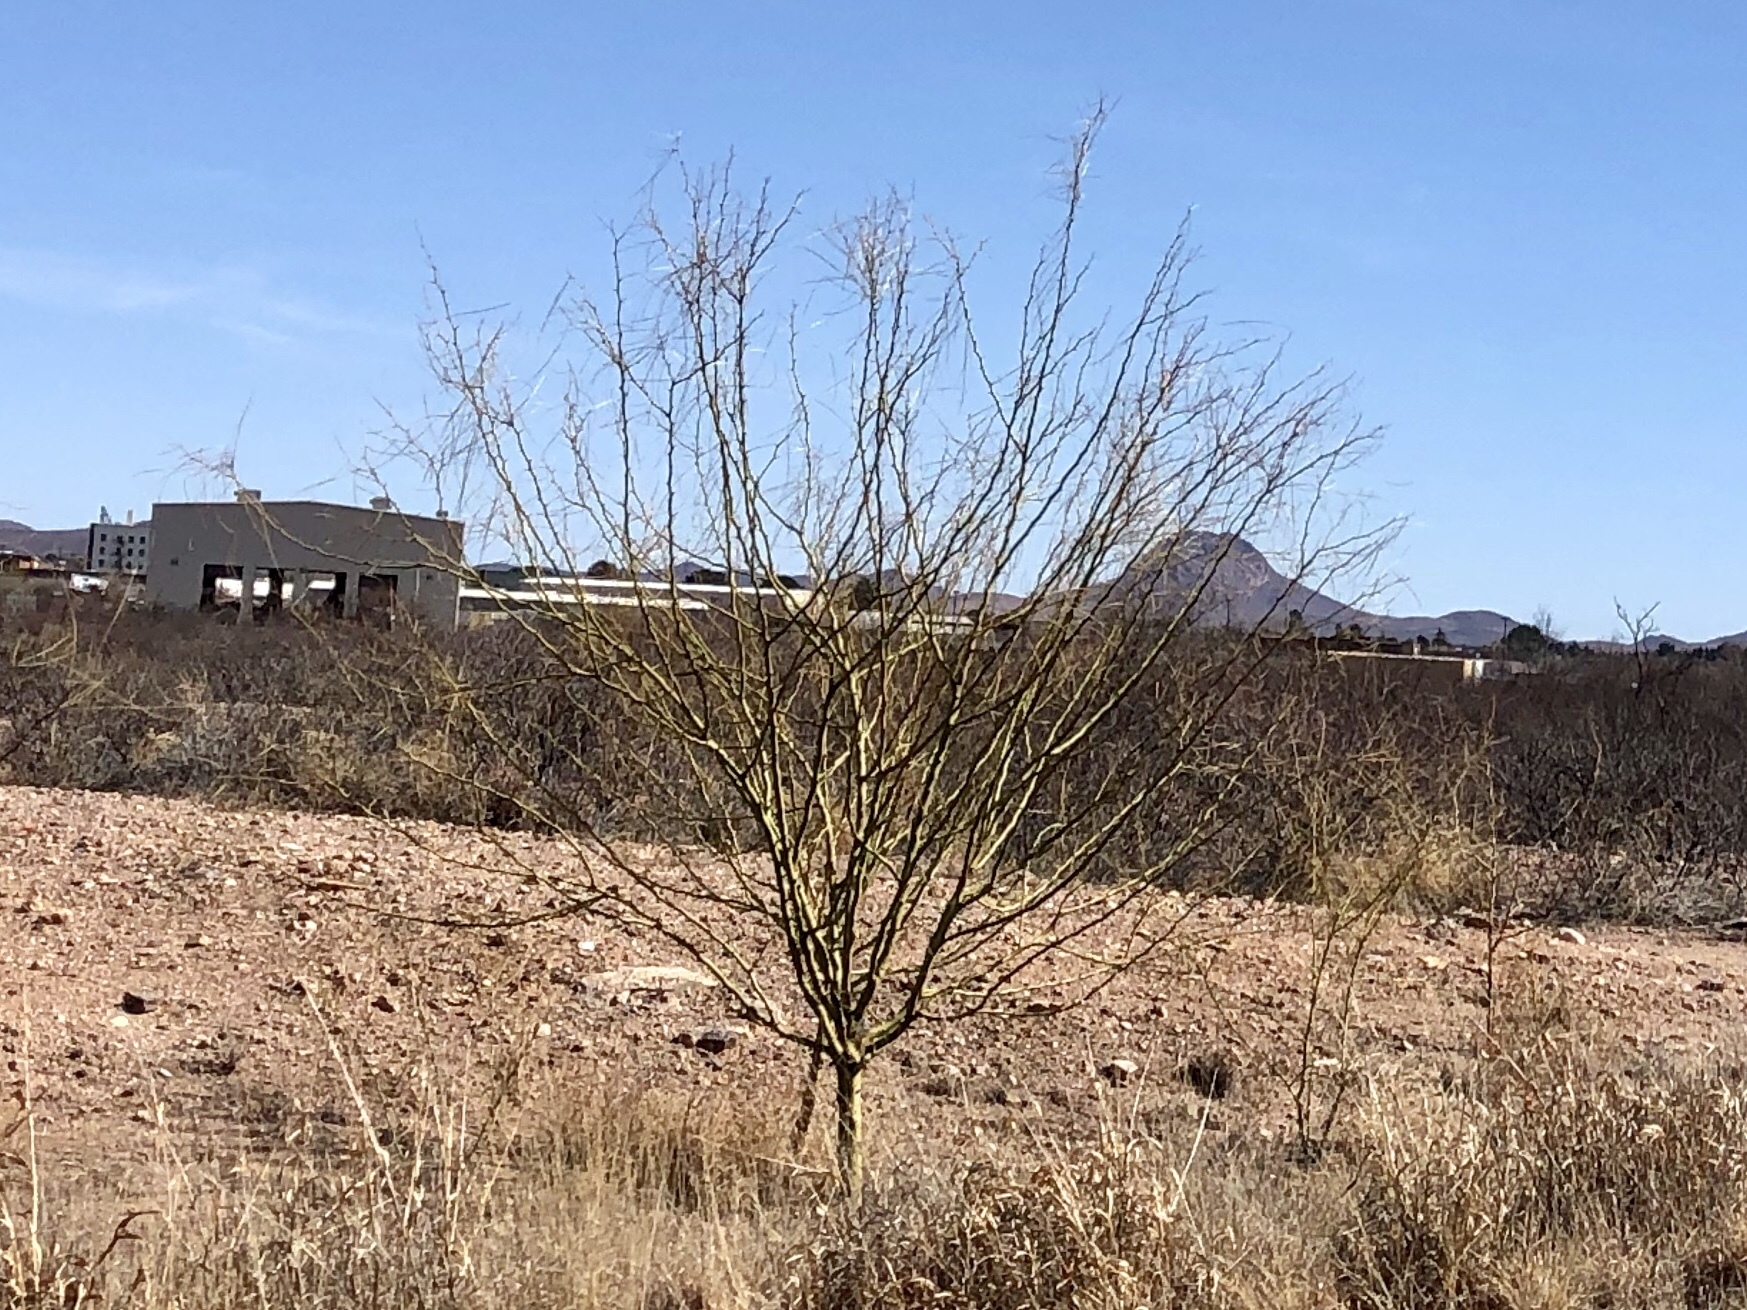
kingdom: Plantae
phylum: Tracheophyta
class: Magnoliopsida
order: Fabales
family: Fabaceae
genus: Parkinsonia
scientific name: Parkinsonia aculeata
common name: Jerusalem thorn
